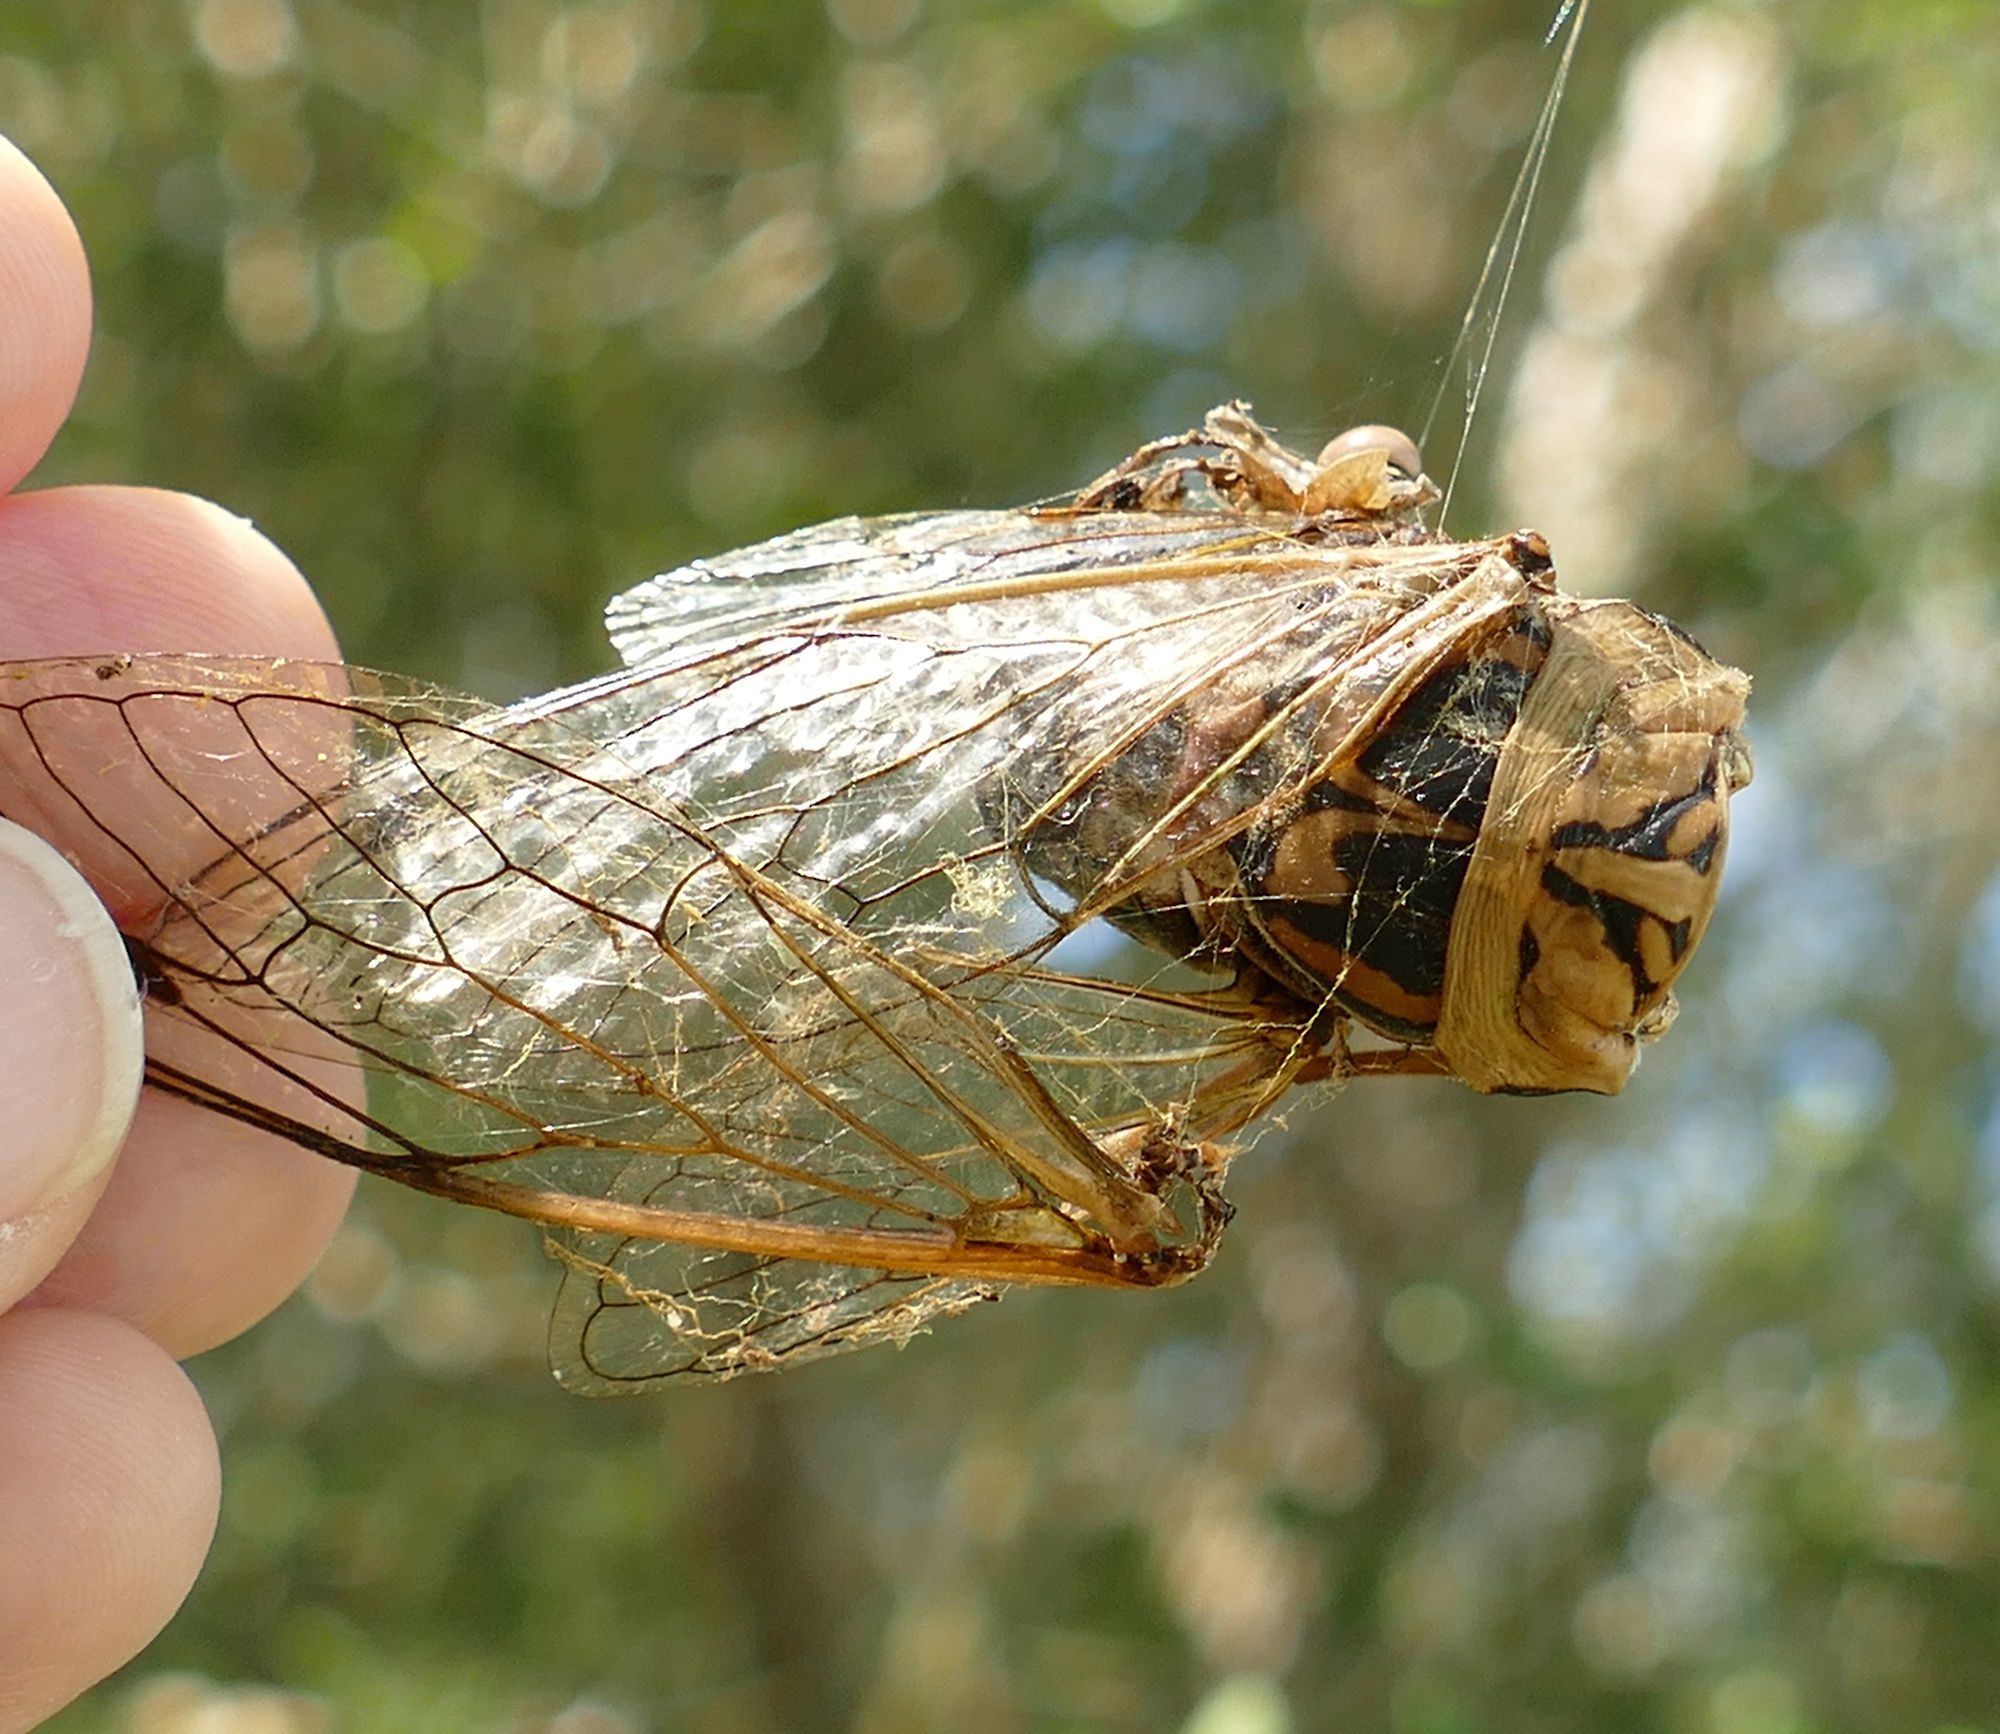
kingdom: Animalia
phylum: Arthropoda
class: Insecta
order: Hemiptera
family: Cicadidae
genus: Megatibicen
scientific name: Megatibicen resh
